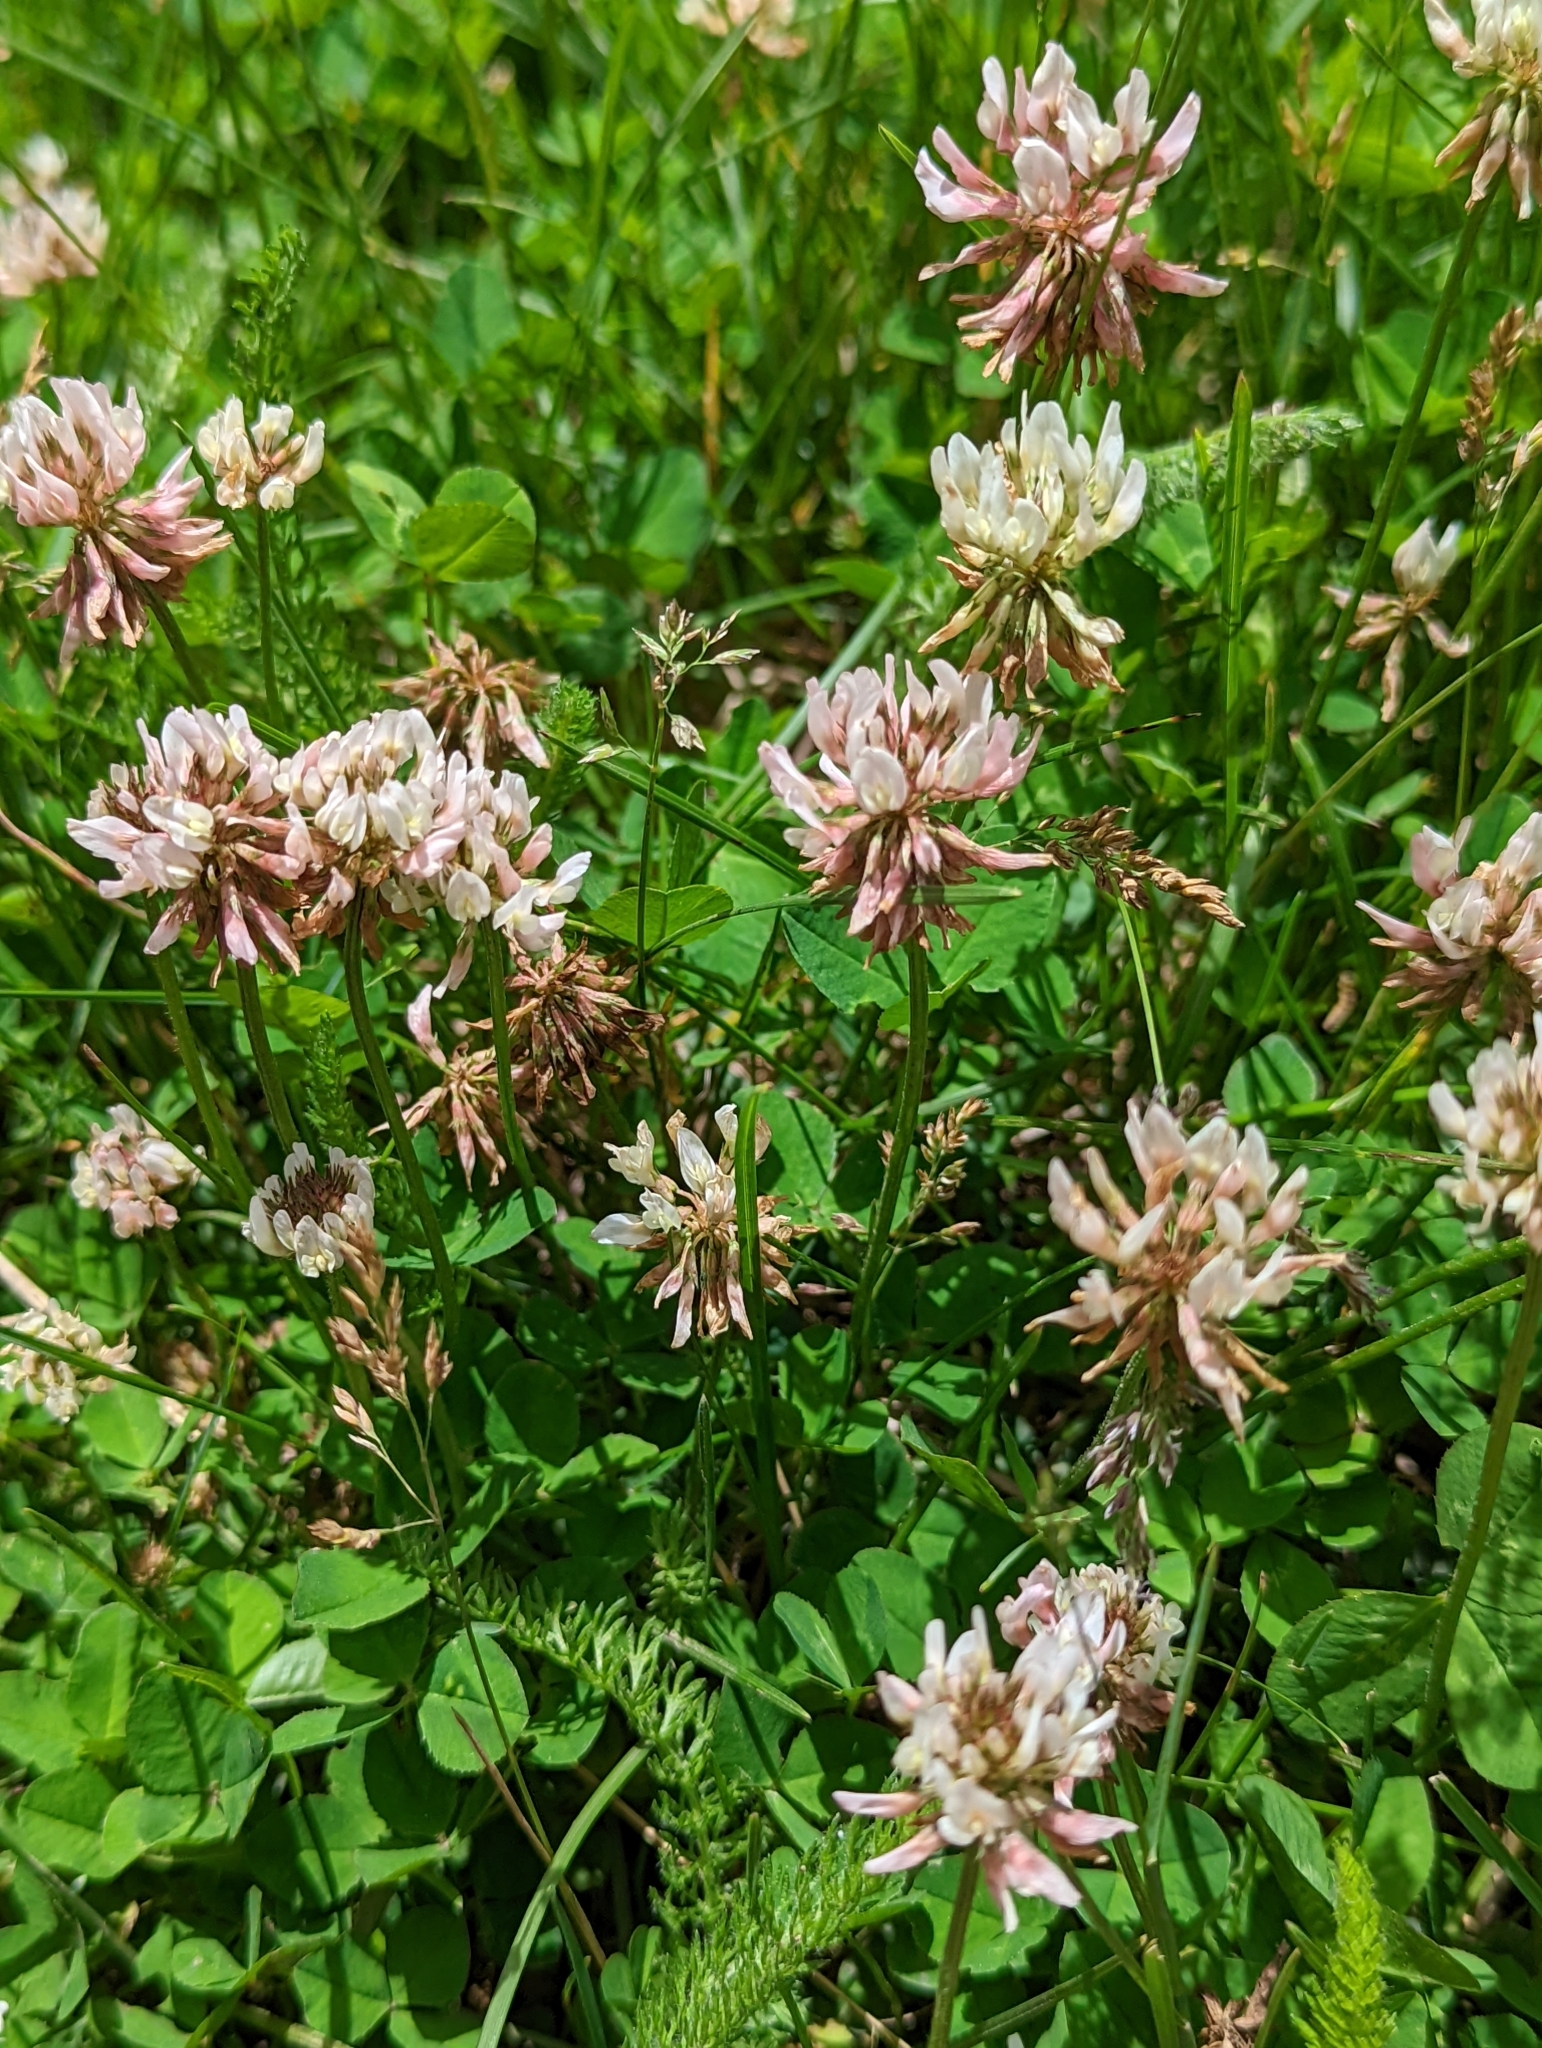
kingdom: Plantae
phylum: Tracheophyta
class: Magnoliopsida
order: Fabales
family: Fabaceae
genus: Trifolium
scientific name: Trifolium repens
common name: White clover
